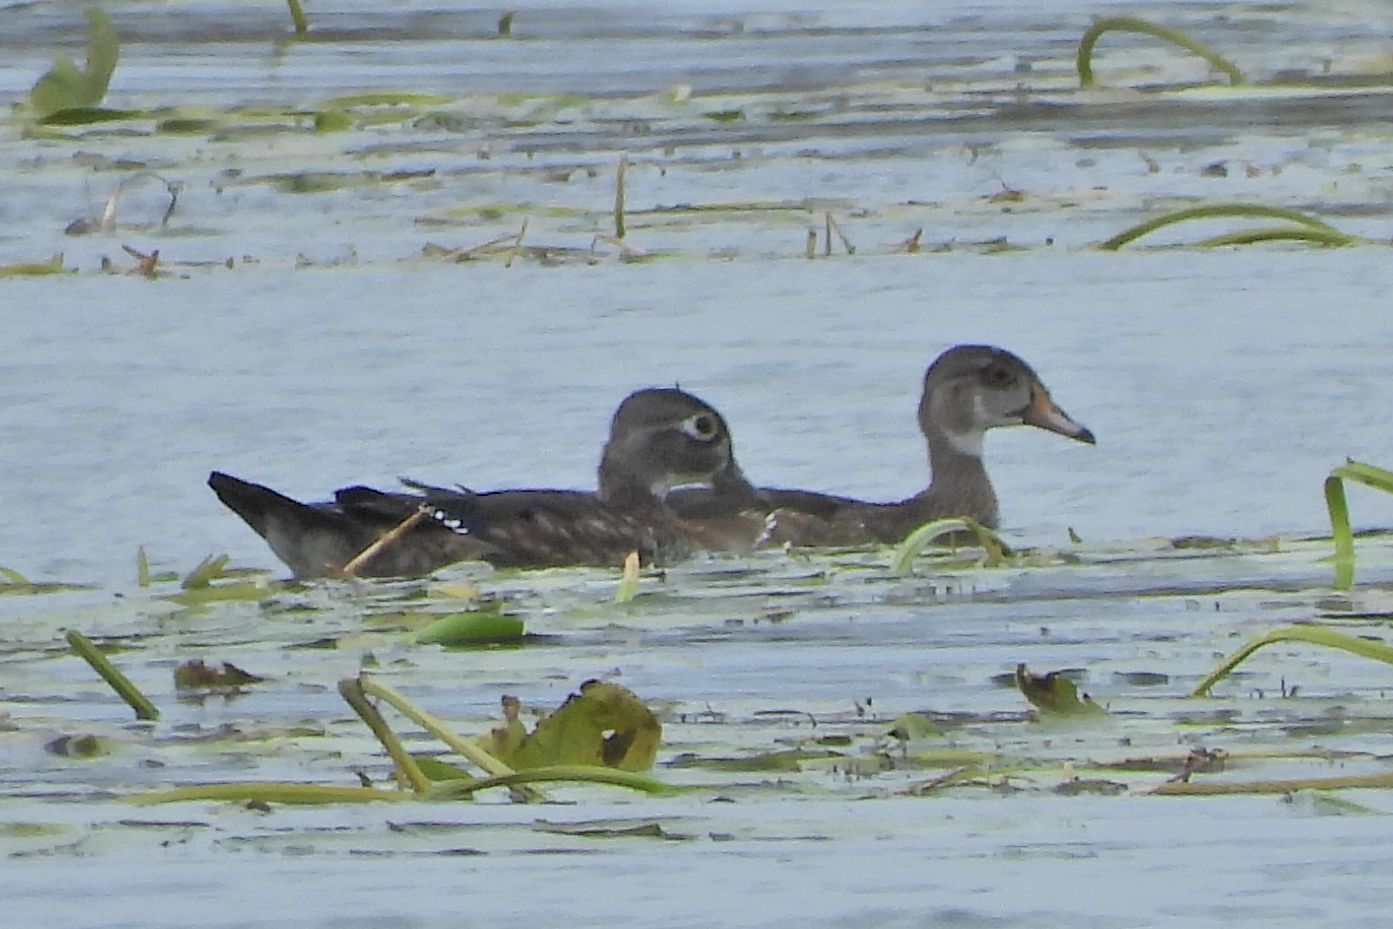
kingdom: Animalia
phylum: Chordata
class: Aves
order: Anseriformes
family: Anatidae
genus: Aix
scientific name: Aix sponsa
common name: Wood duck
